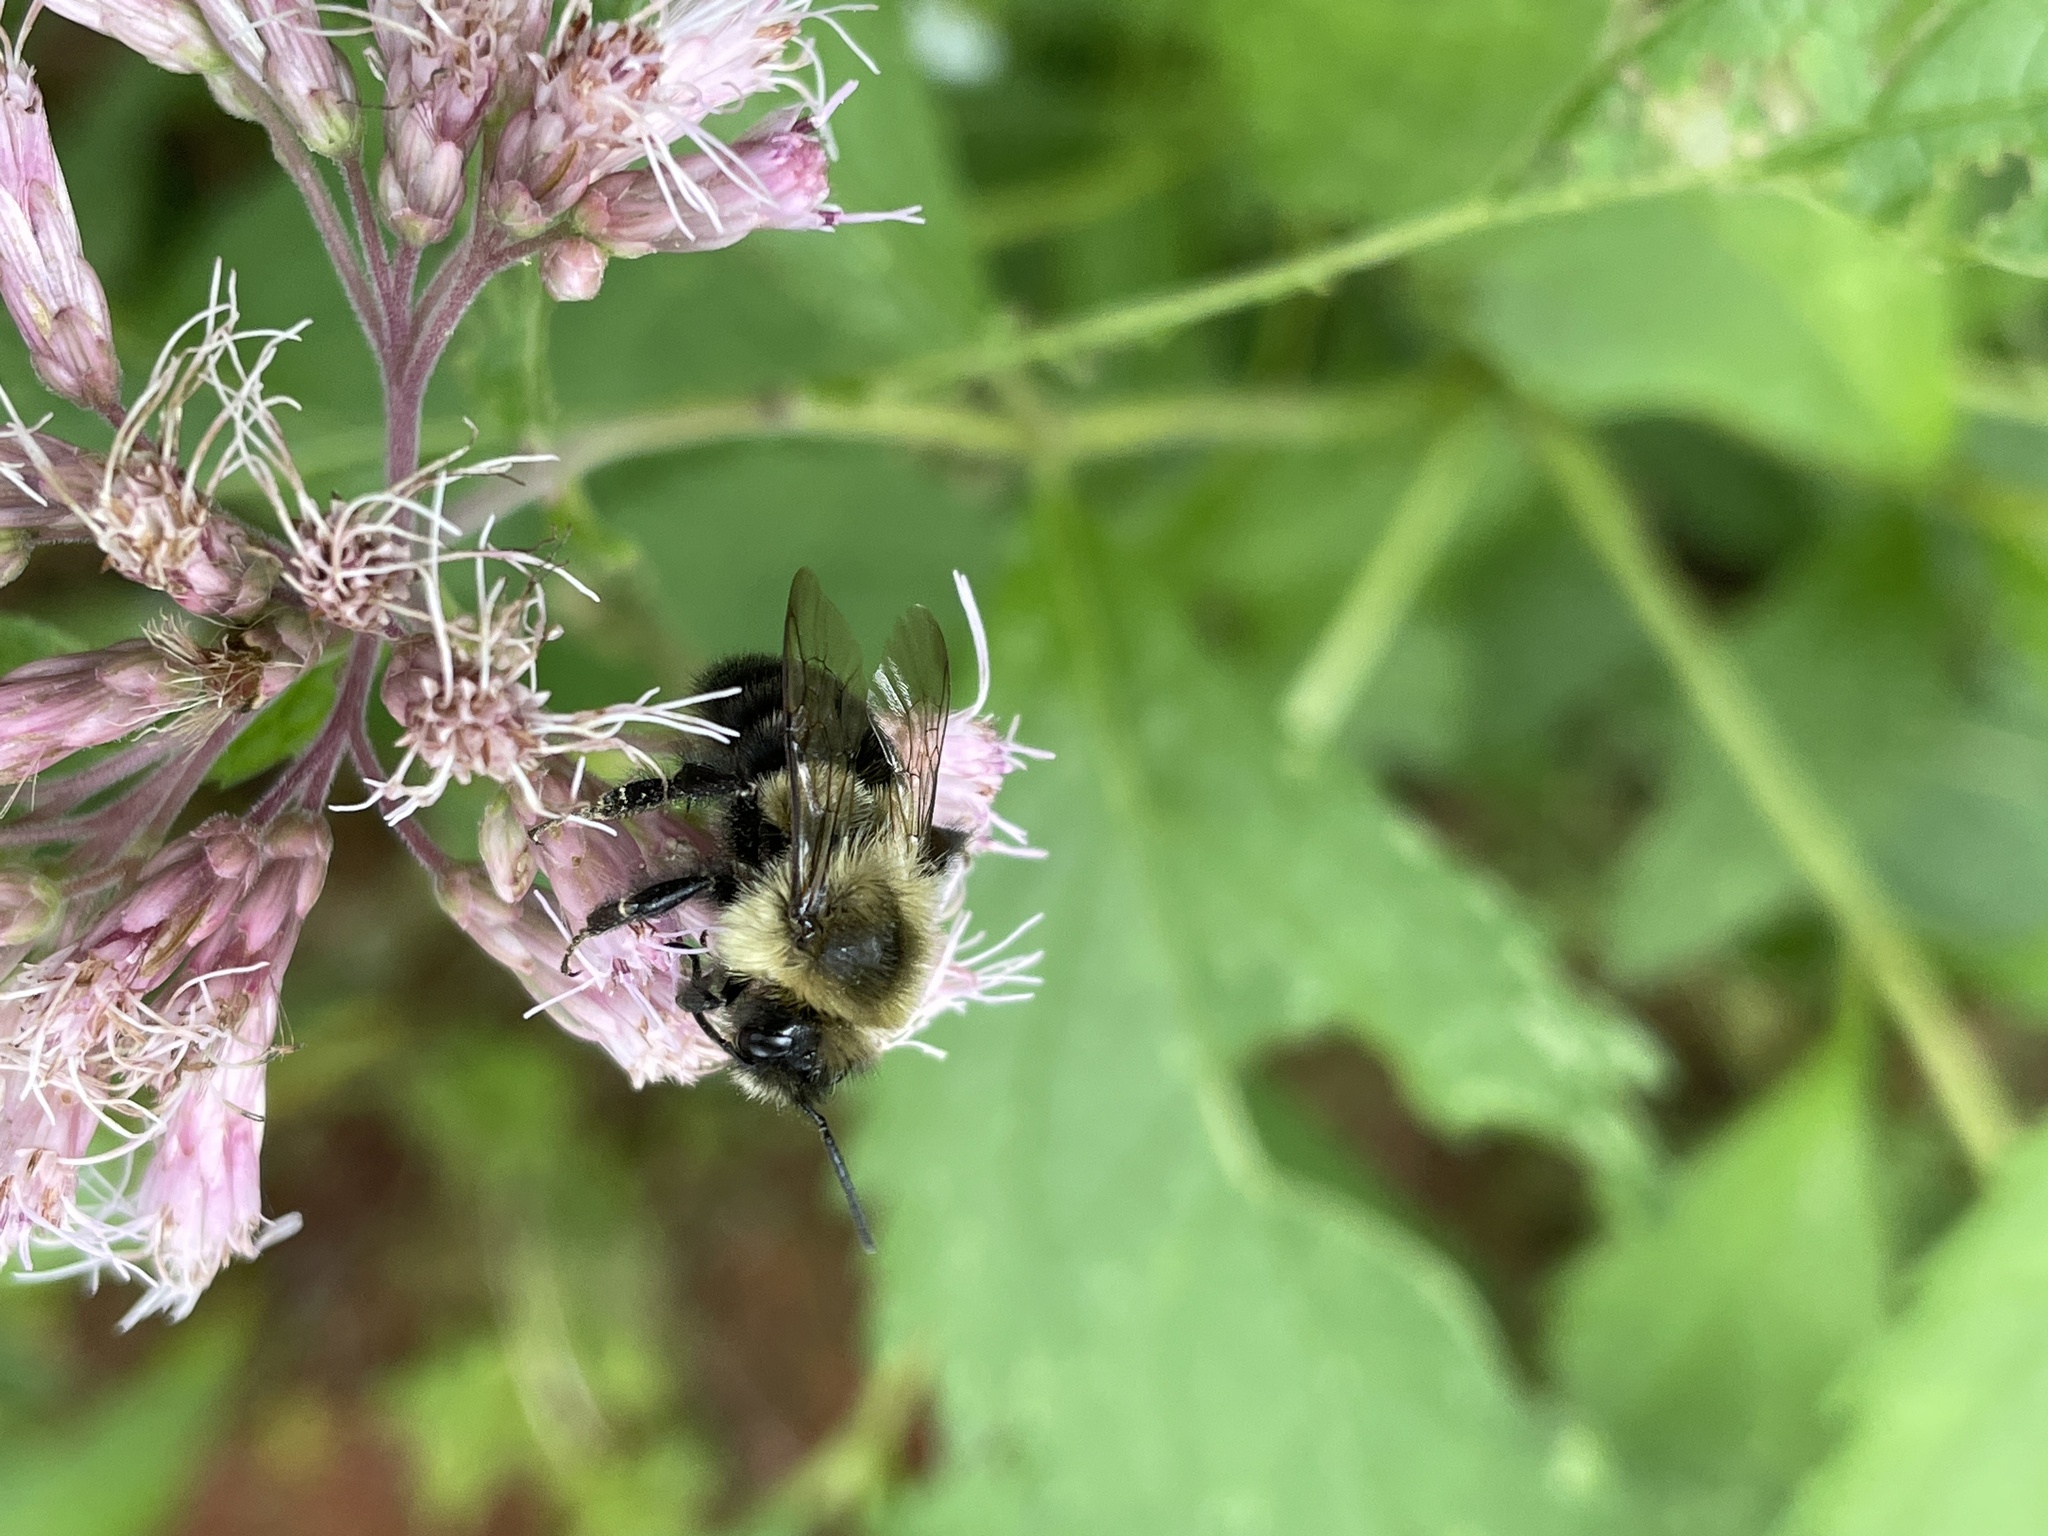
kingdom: Animalia
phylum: Arthropoda
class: Insecta
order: Hymenoptera
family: Apidae
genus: Bombus
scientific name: Bombus impatiens
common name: Common eastern bumble bee
